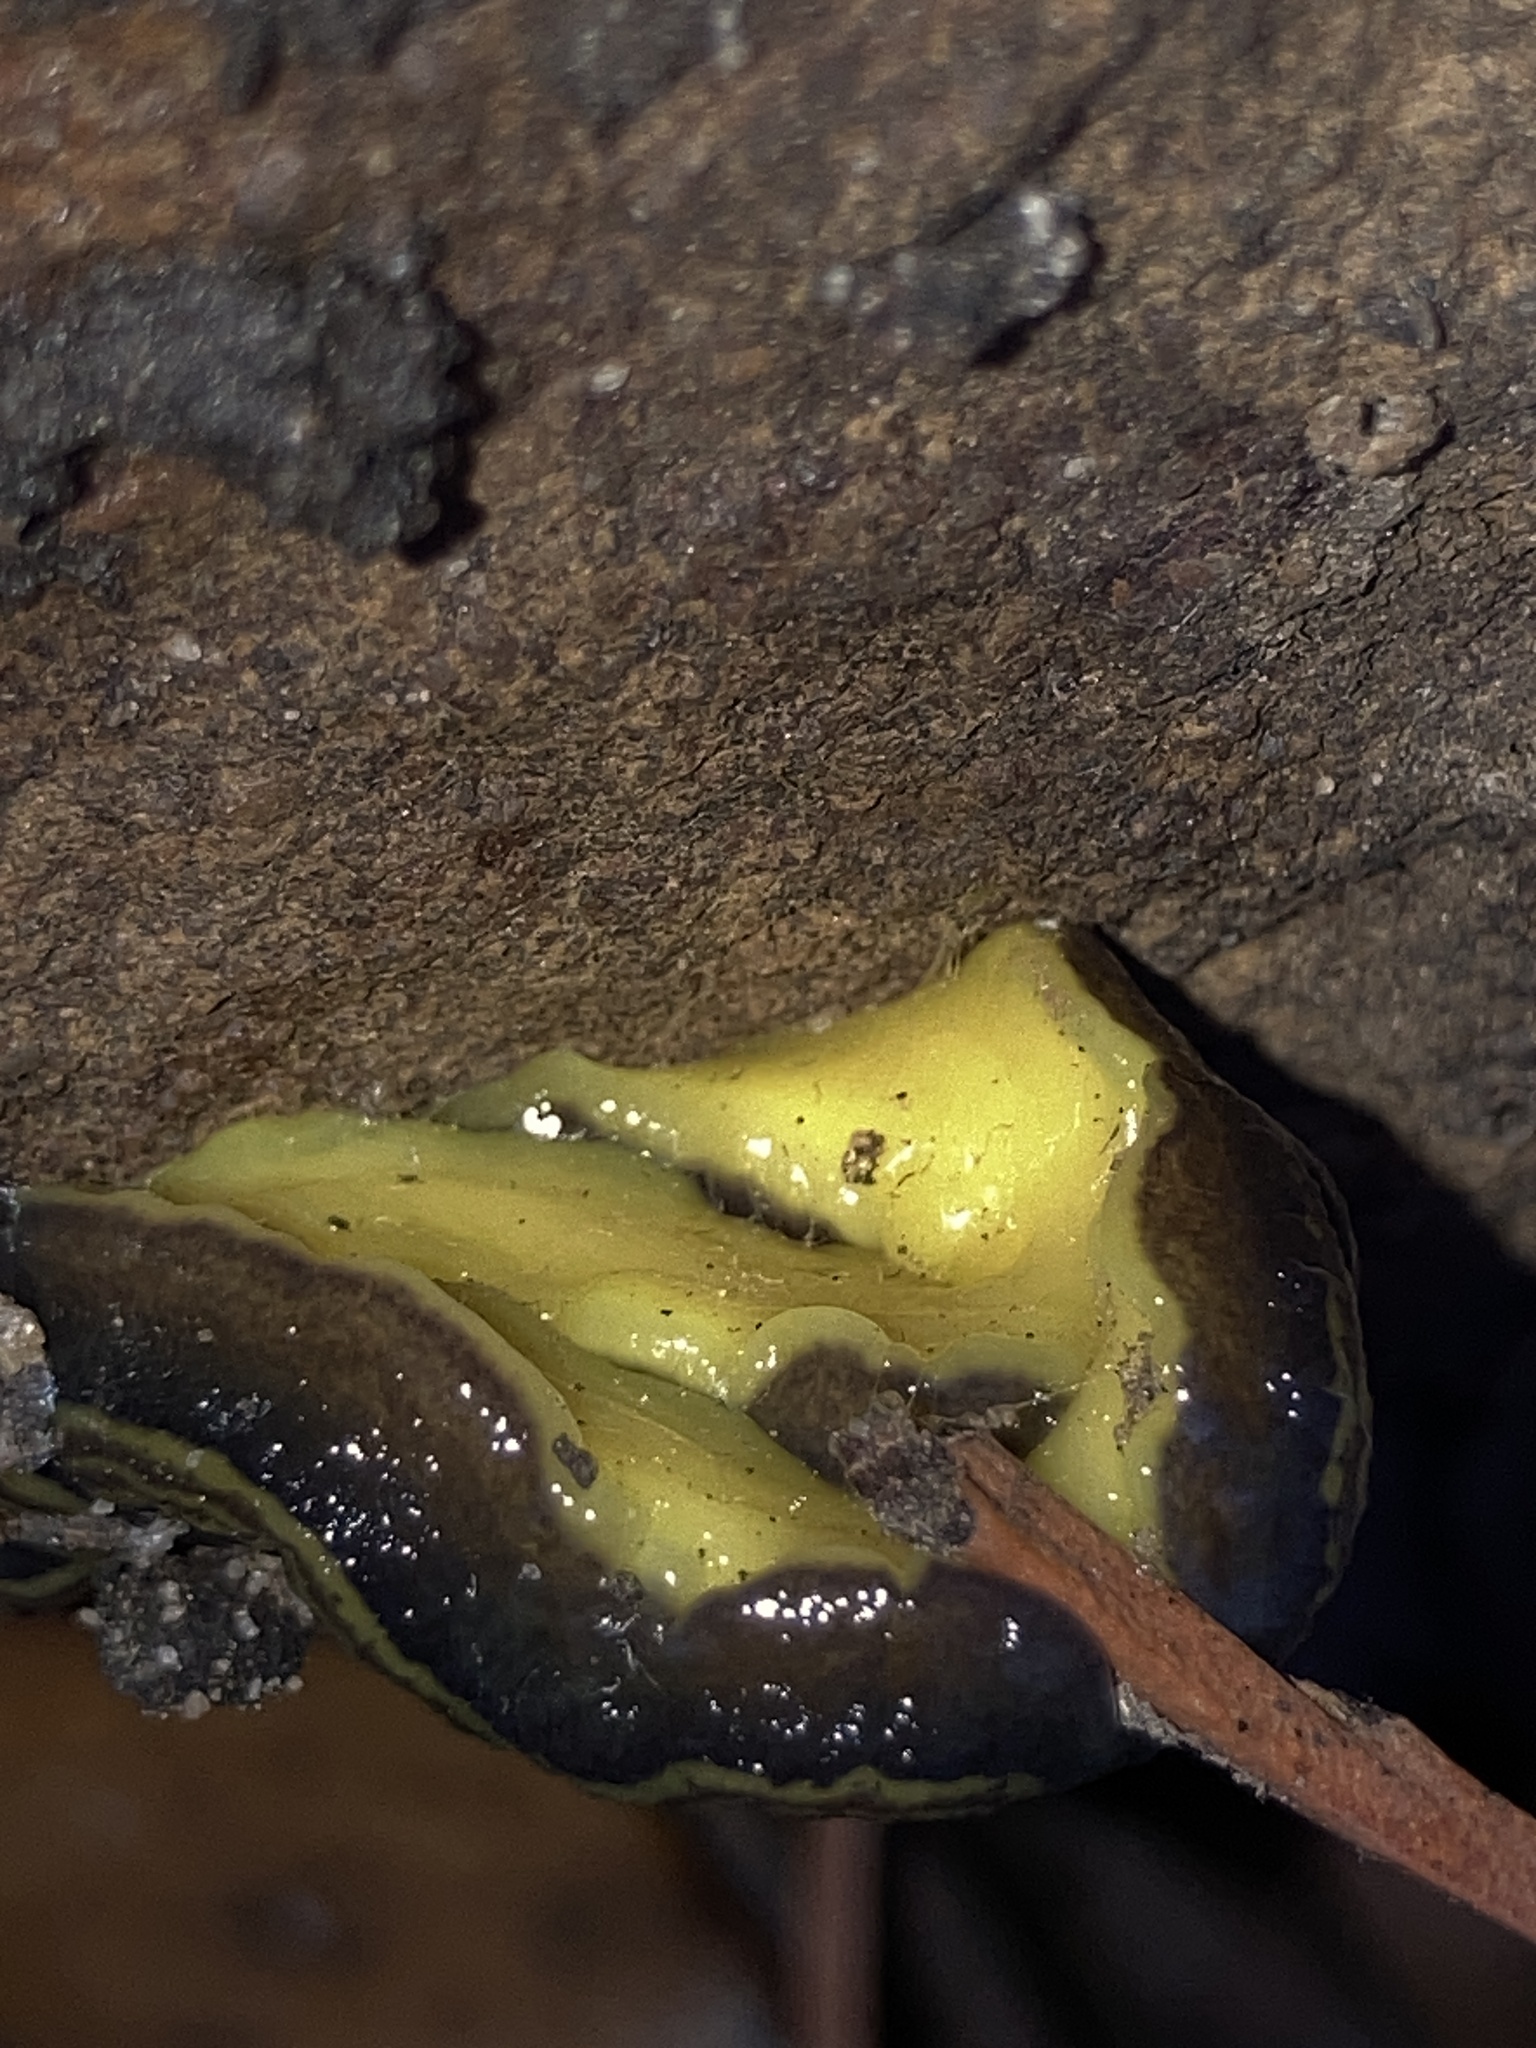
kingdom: Animalia
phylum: Platyhelminthes
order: Tricladida
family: Geoplanidae
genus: Caenoplana
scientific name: Caenoplana variegata
